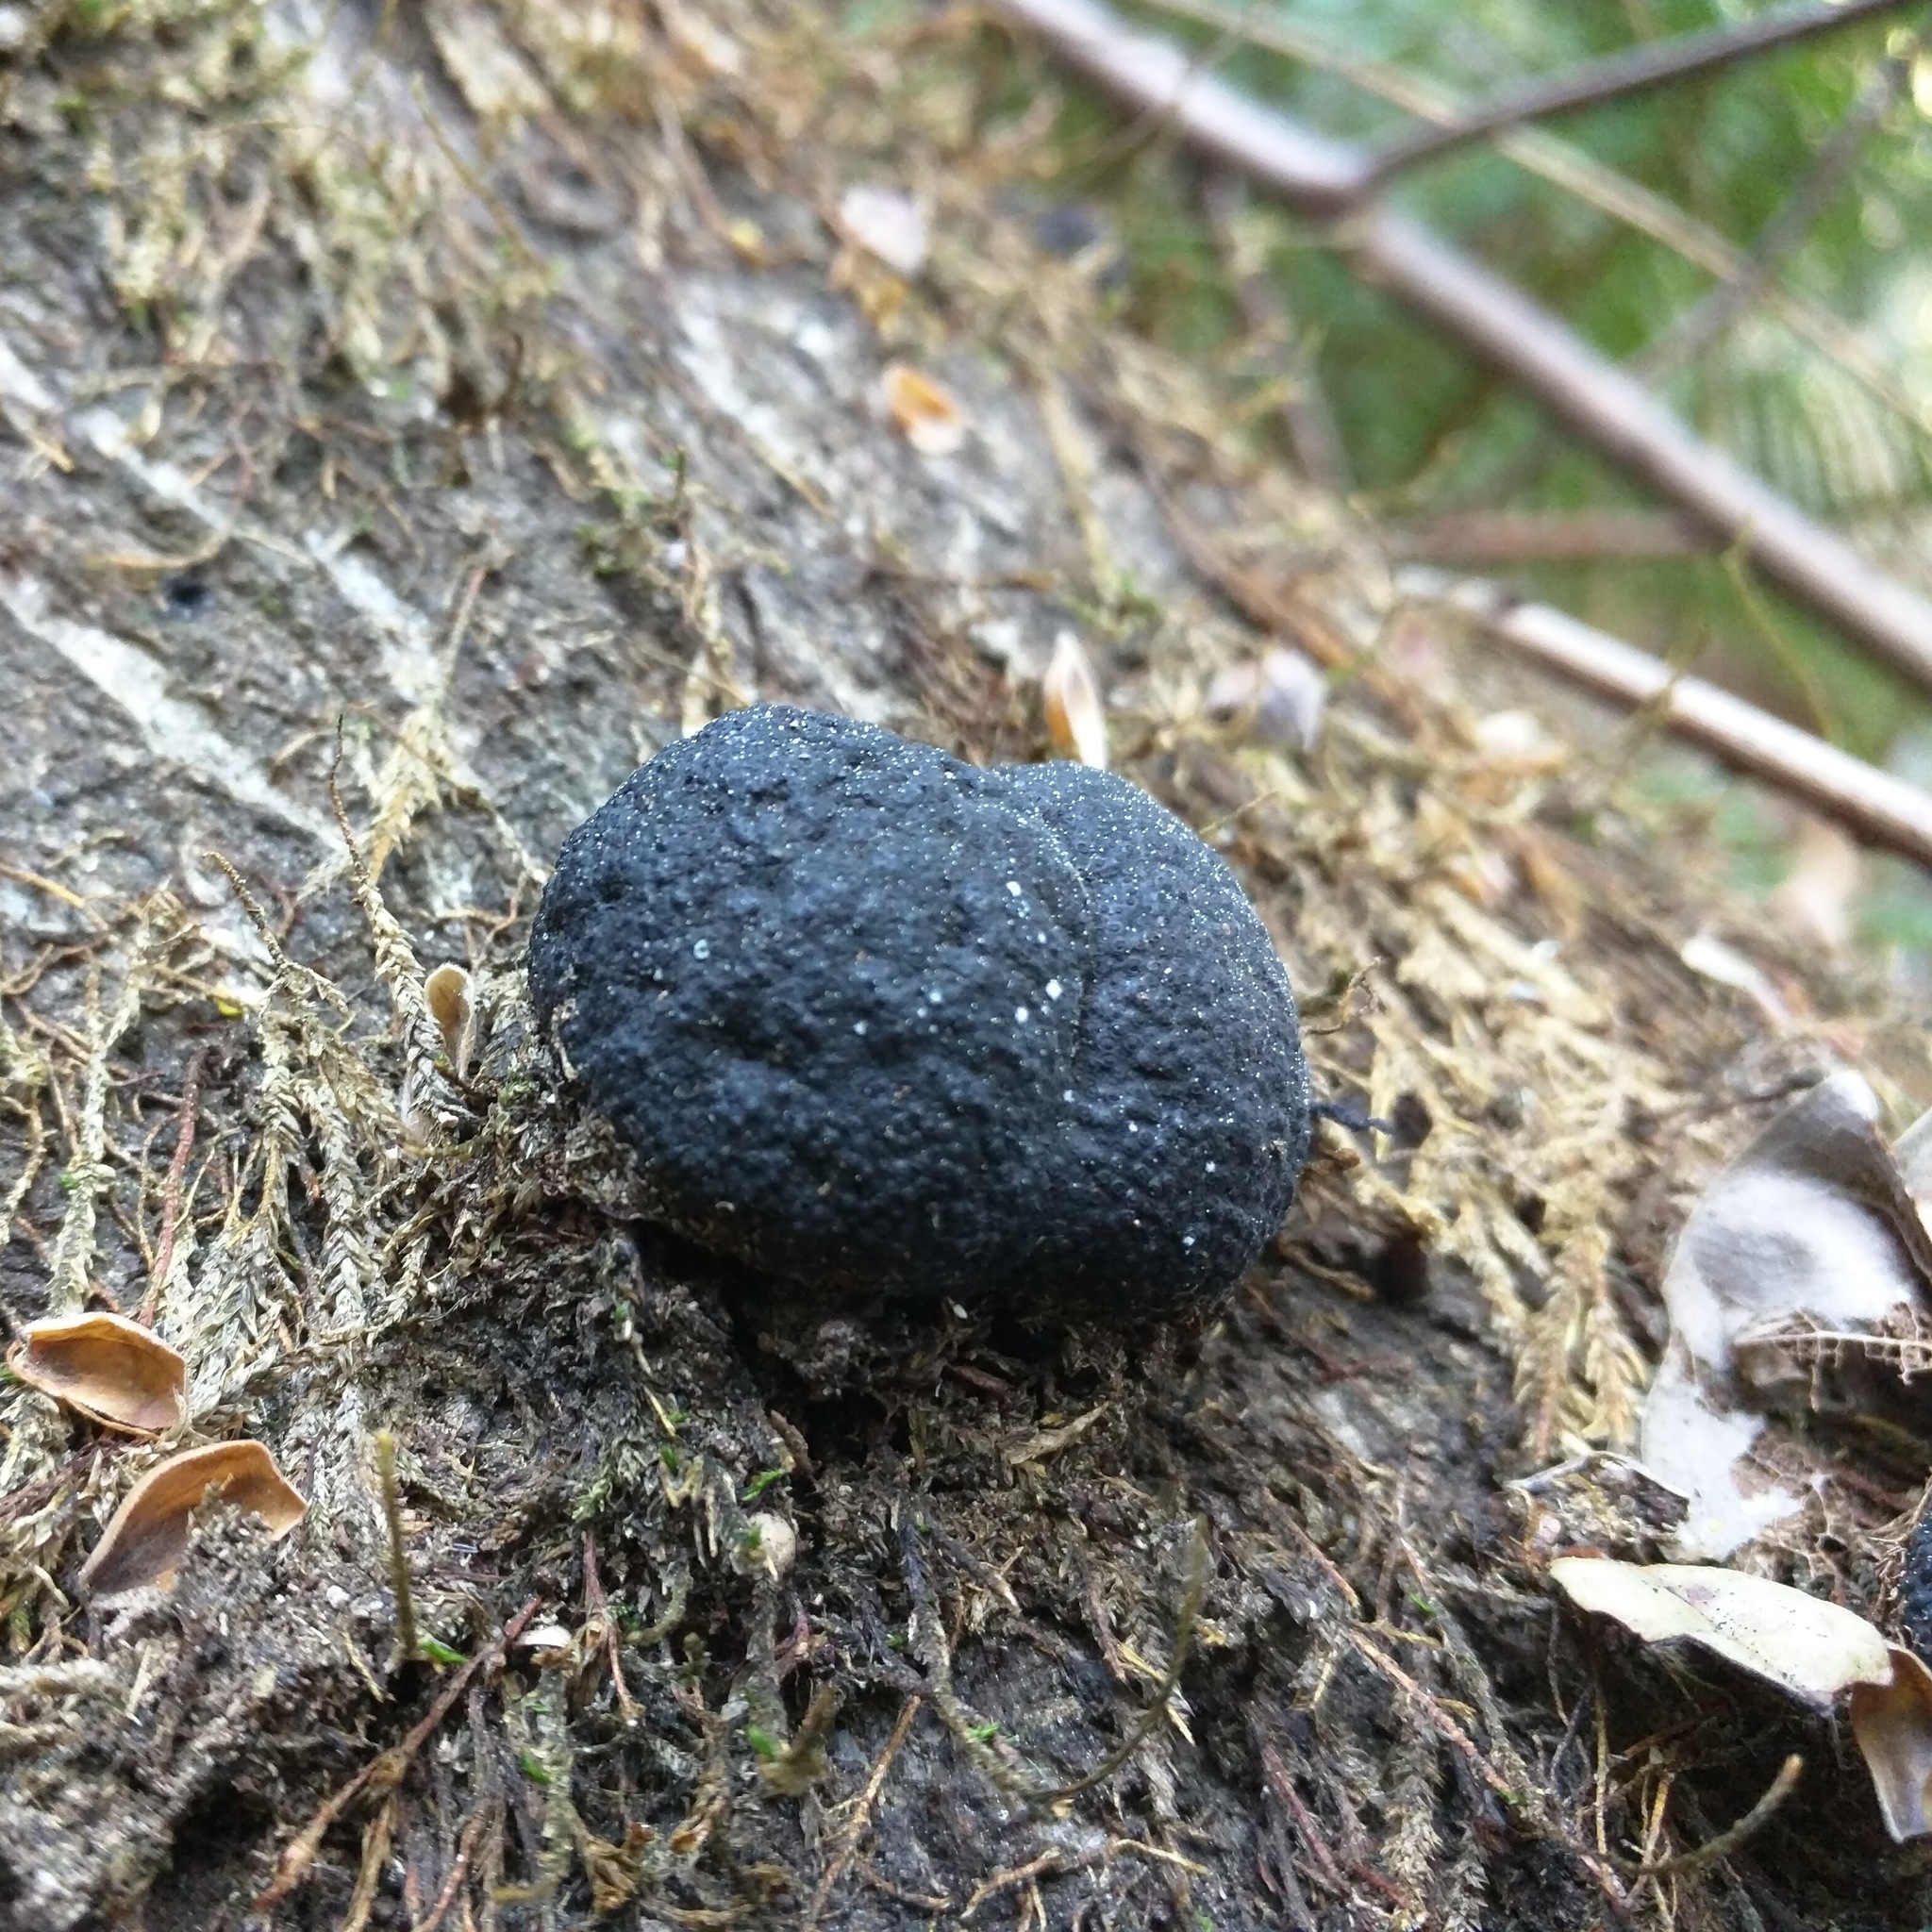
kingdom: Fungi
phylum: Ascomycota
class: Sordariomycetes
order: Xylariales
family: Hypoxylaceae
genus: Annulohypoxylon
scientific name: Annulohypoxylon thouarsianum
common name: Cramp balls
